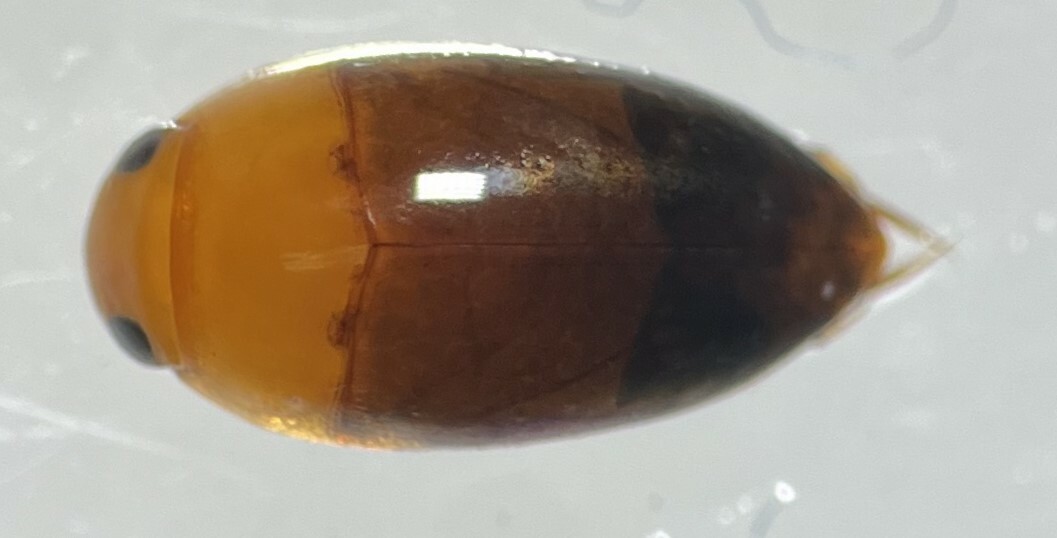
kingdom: Animalia
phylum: Arthropoda
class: Insecta
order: Coleoptera
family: Noteridae
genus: Hydrocanthus
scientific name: Hydrocanthus oblongus
